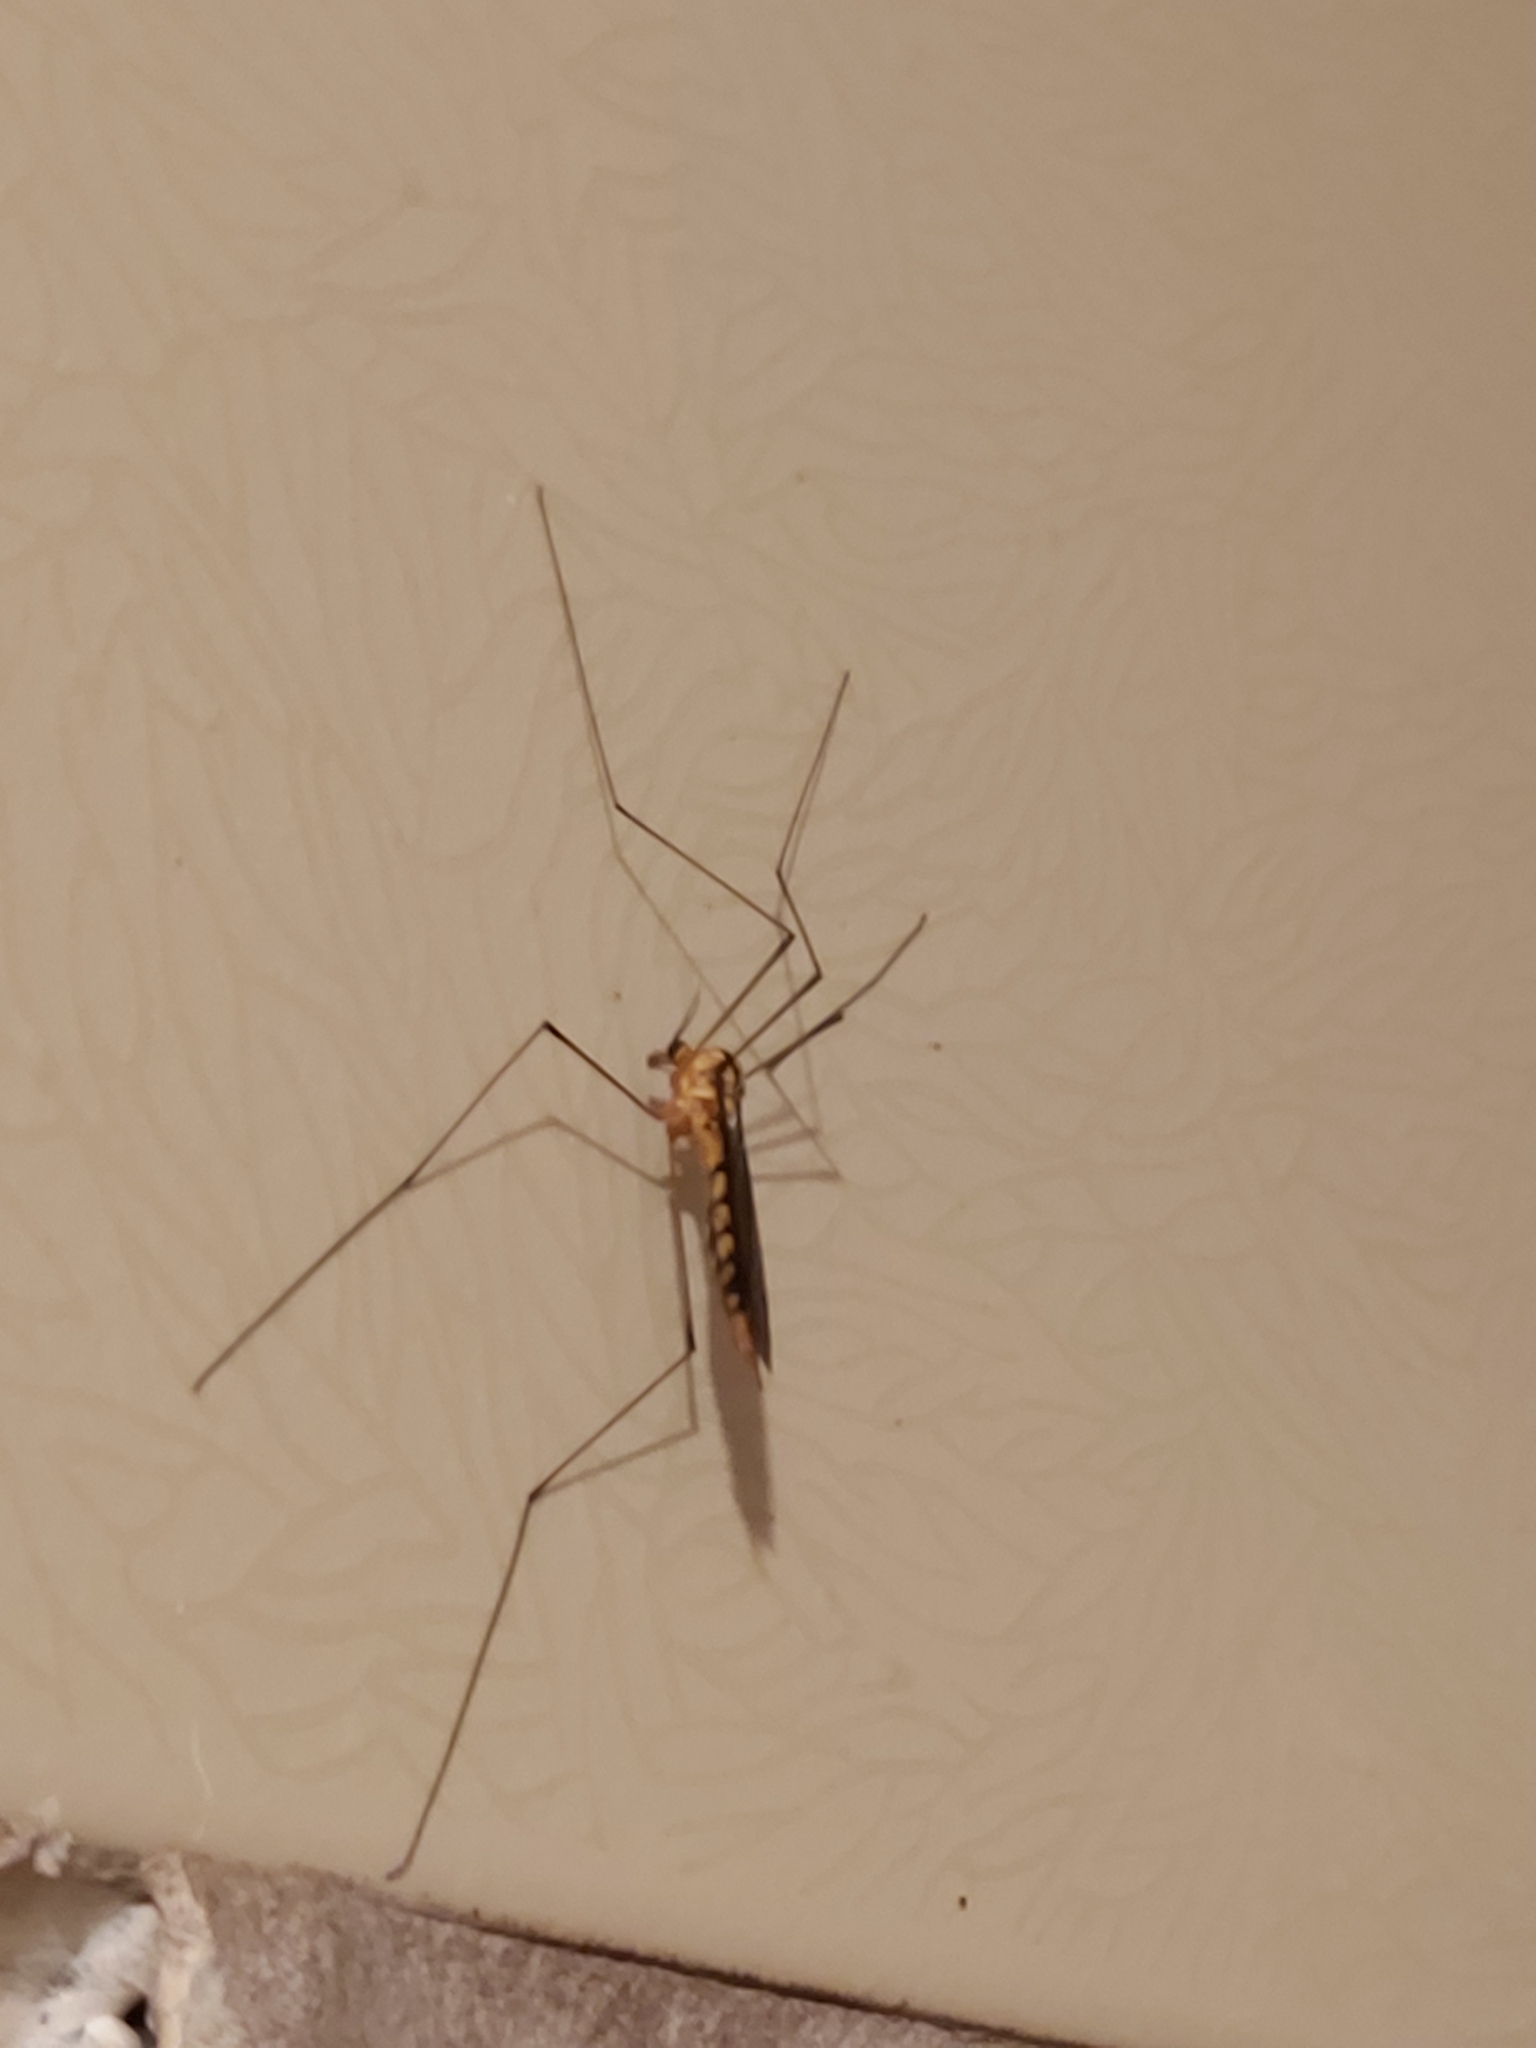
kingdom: Animalia
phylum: Arthropoda
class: Insecta
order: Diptera
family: Tipulidae
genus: Nephrotoma
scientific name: Nephrotoma australasiae
